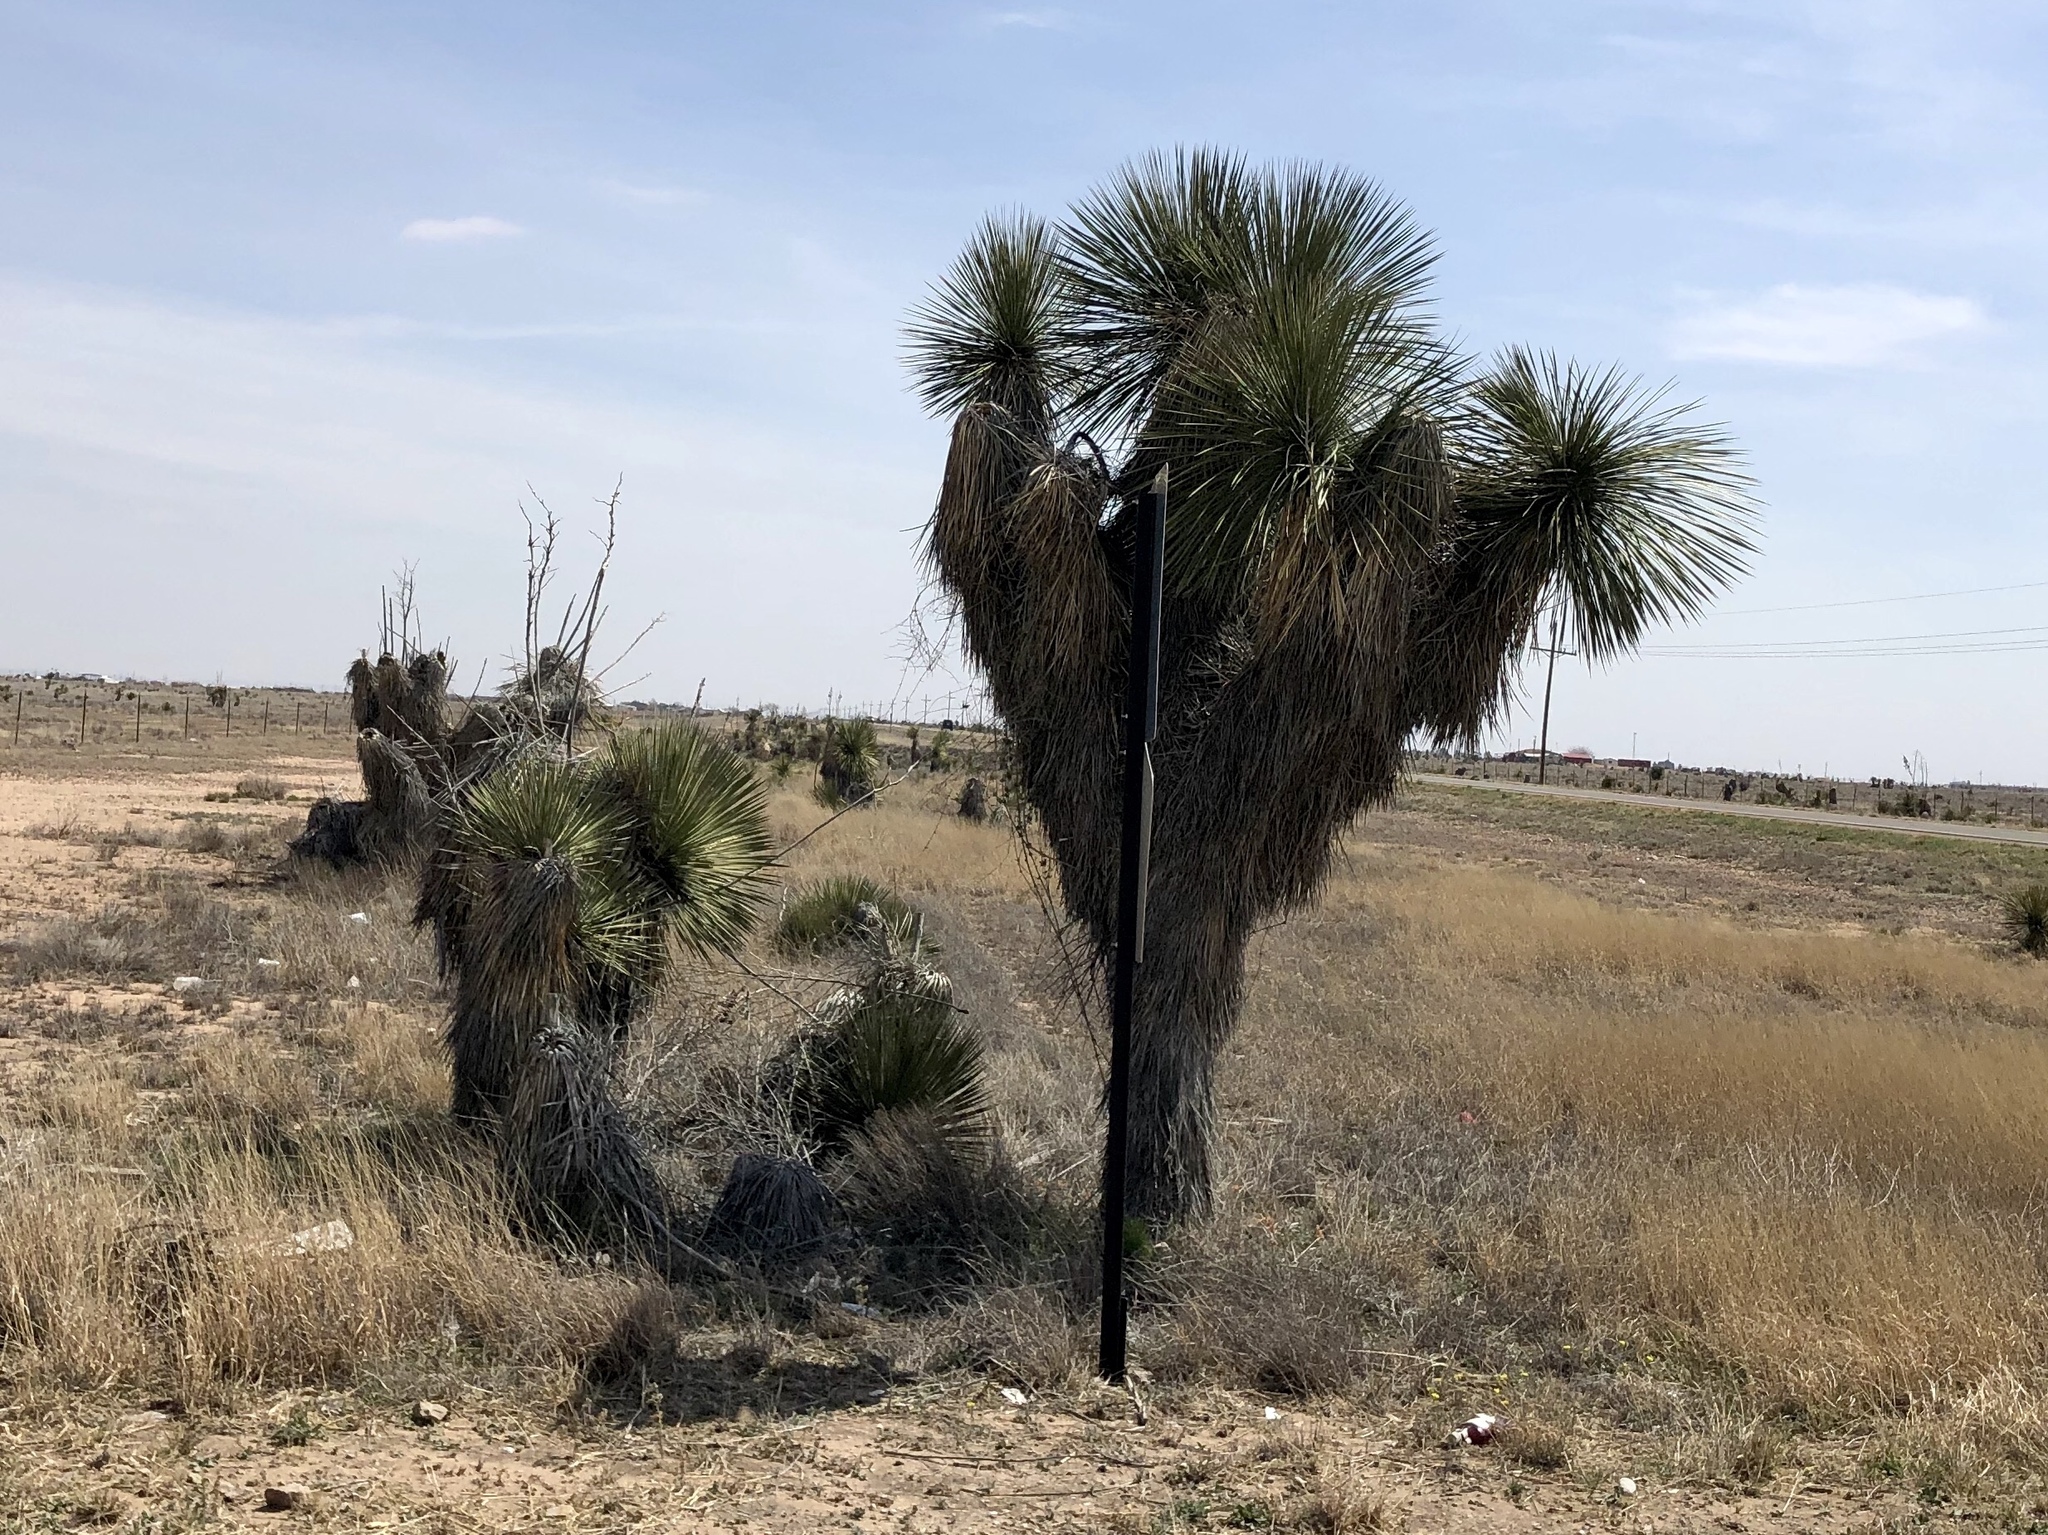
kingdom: Plantae
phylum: Tracheophyta
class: Liliopsida
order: Asparagales
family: Asparagaceae
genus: Yucca
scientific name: Yucca elata
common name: Palmella
